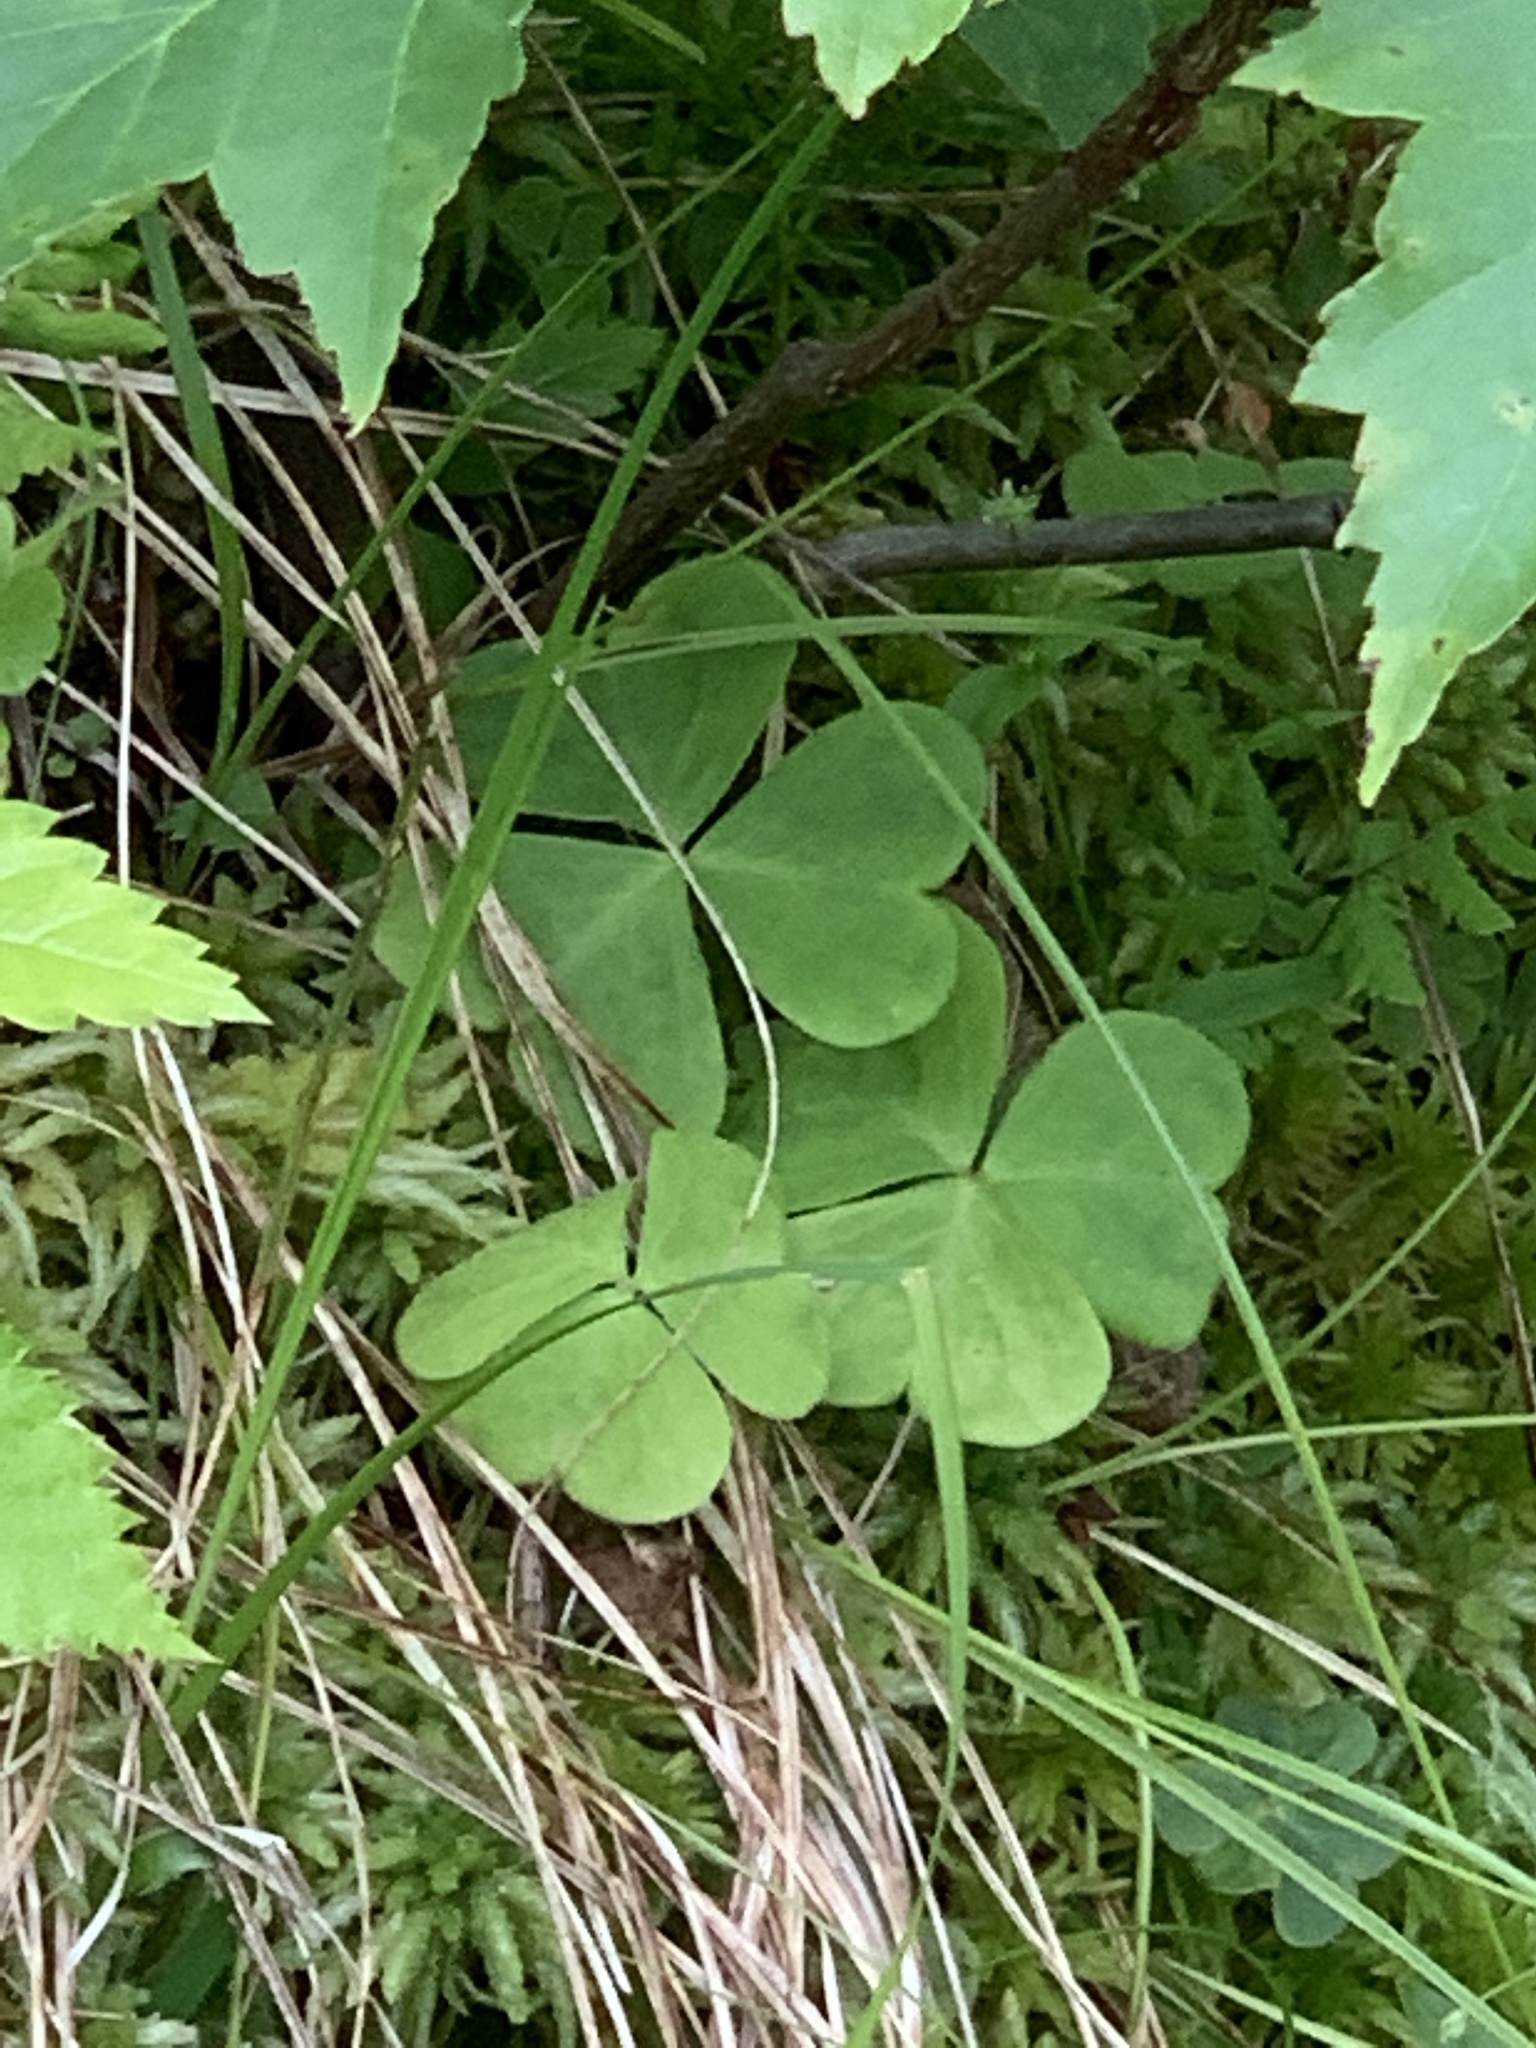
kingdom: Plantae
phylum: Tracheophyta
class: Magnoliopsida
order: Oxalidales
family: Oxalidaceae
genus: Oxalis
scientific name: Oxalis montana
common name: American wood-sorrel
